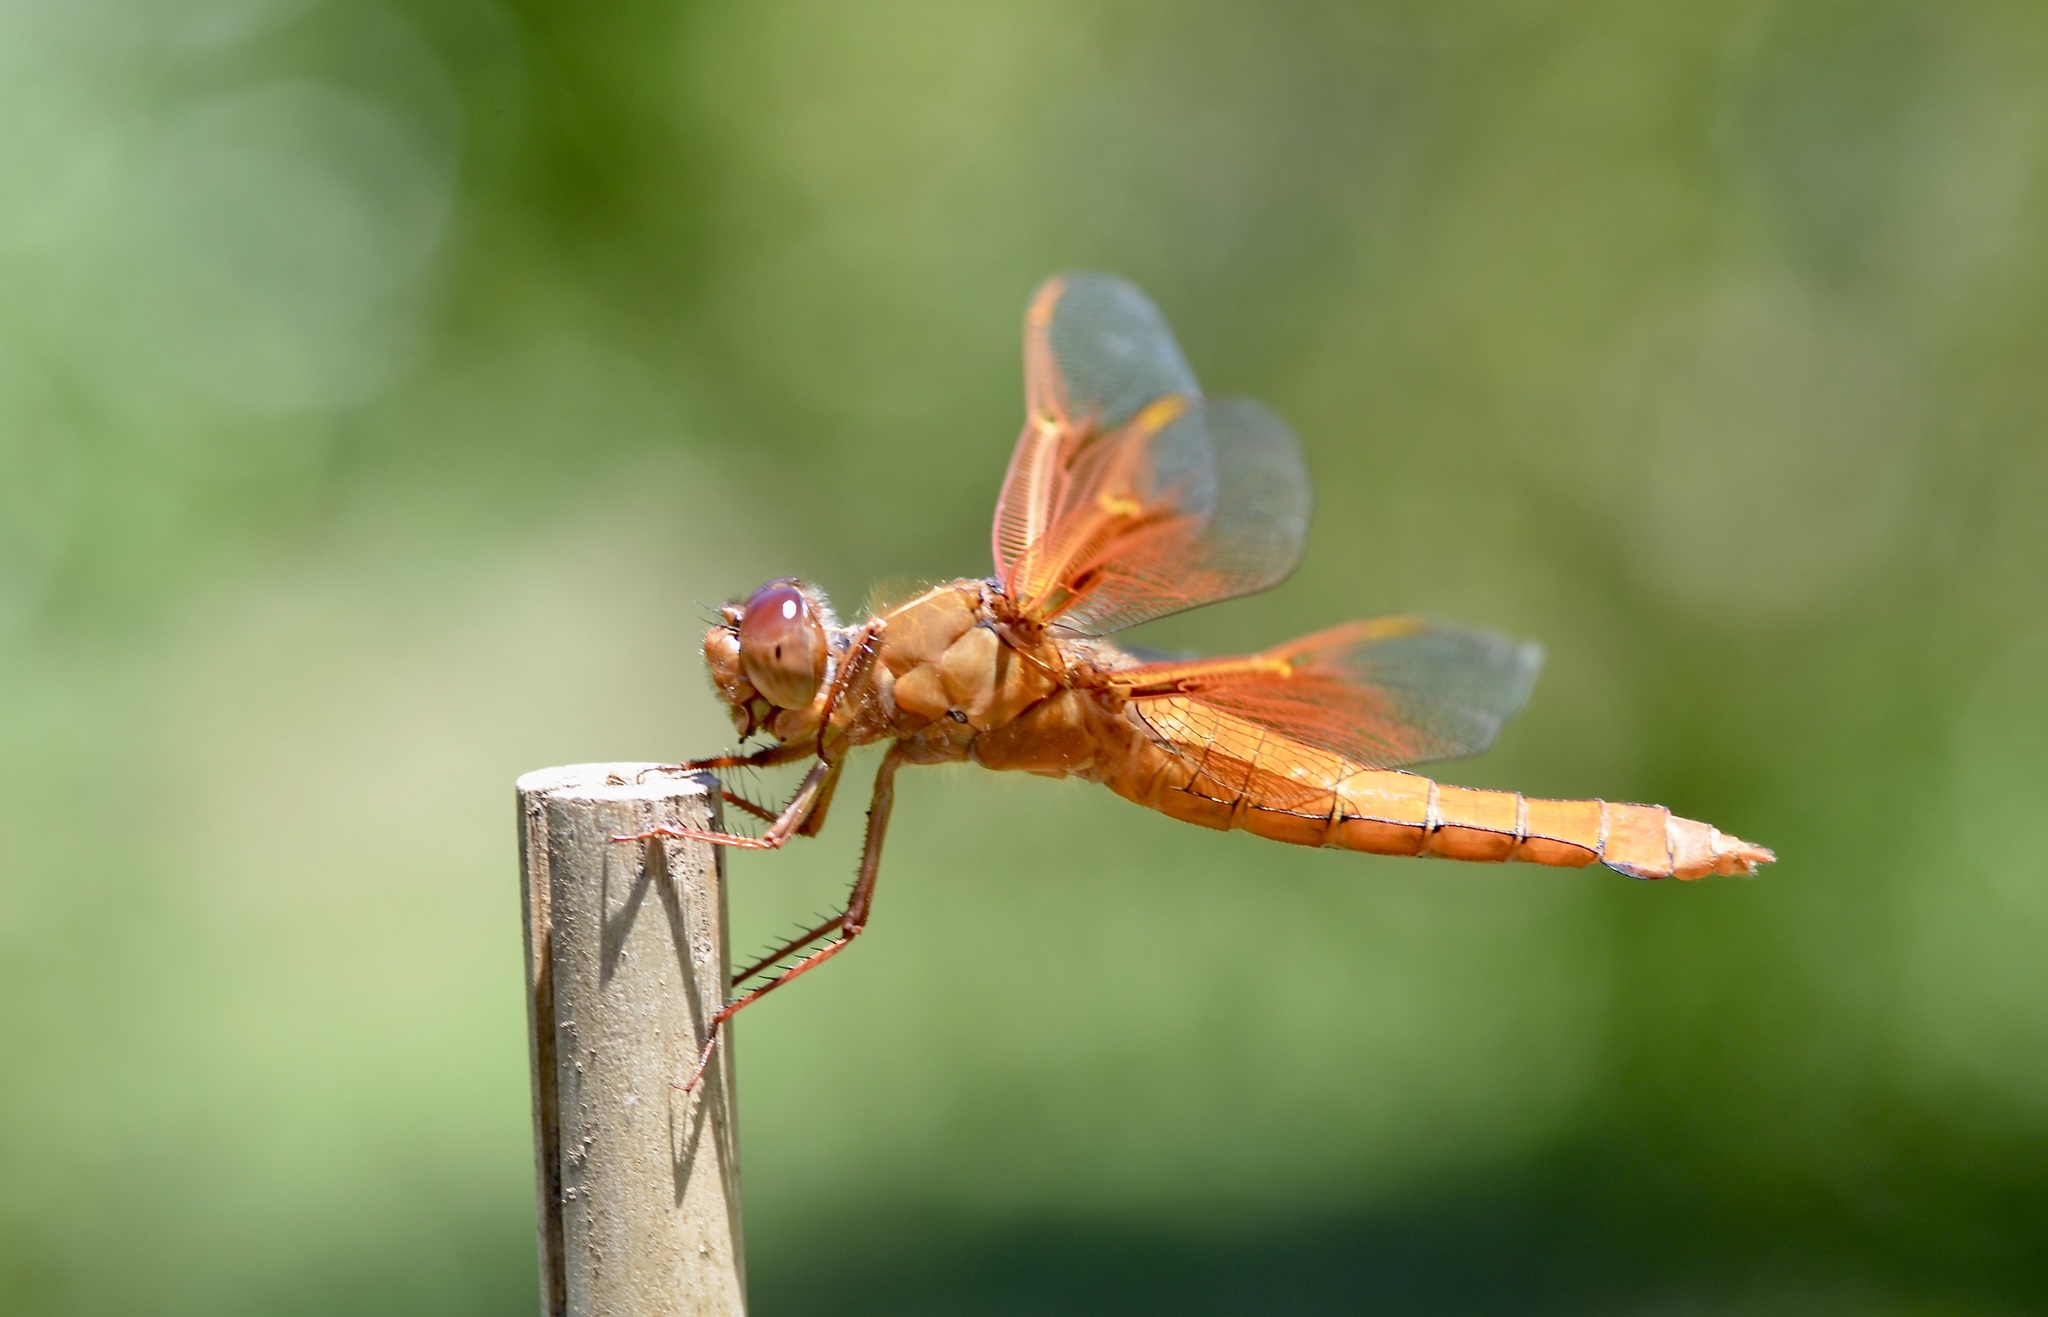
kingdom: Animalia
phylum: Arthropoda
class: Insecta
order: Odonata
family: Libellulidae
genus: Libellula
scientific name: Libellula saturata
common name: Flame skimmer
